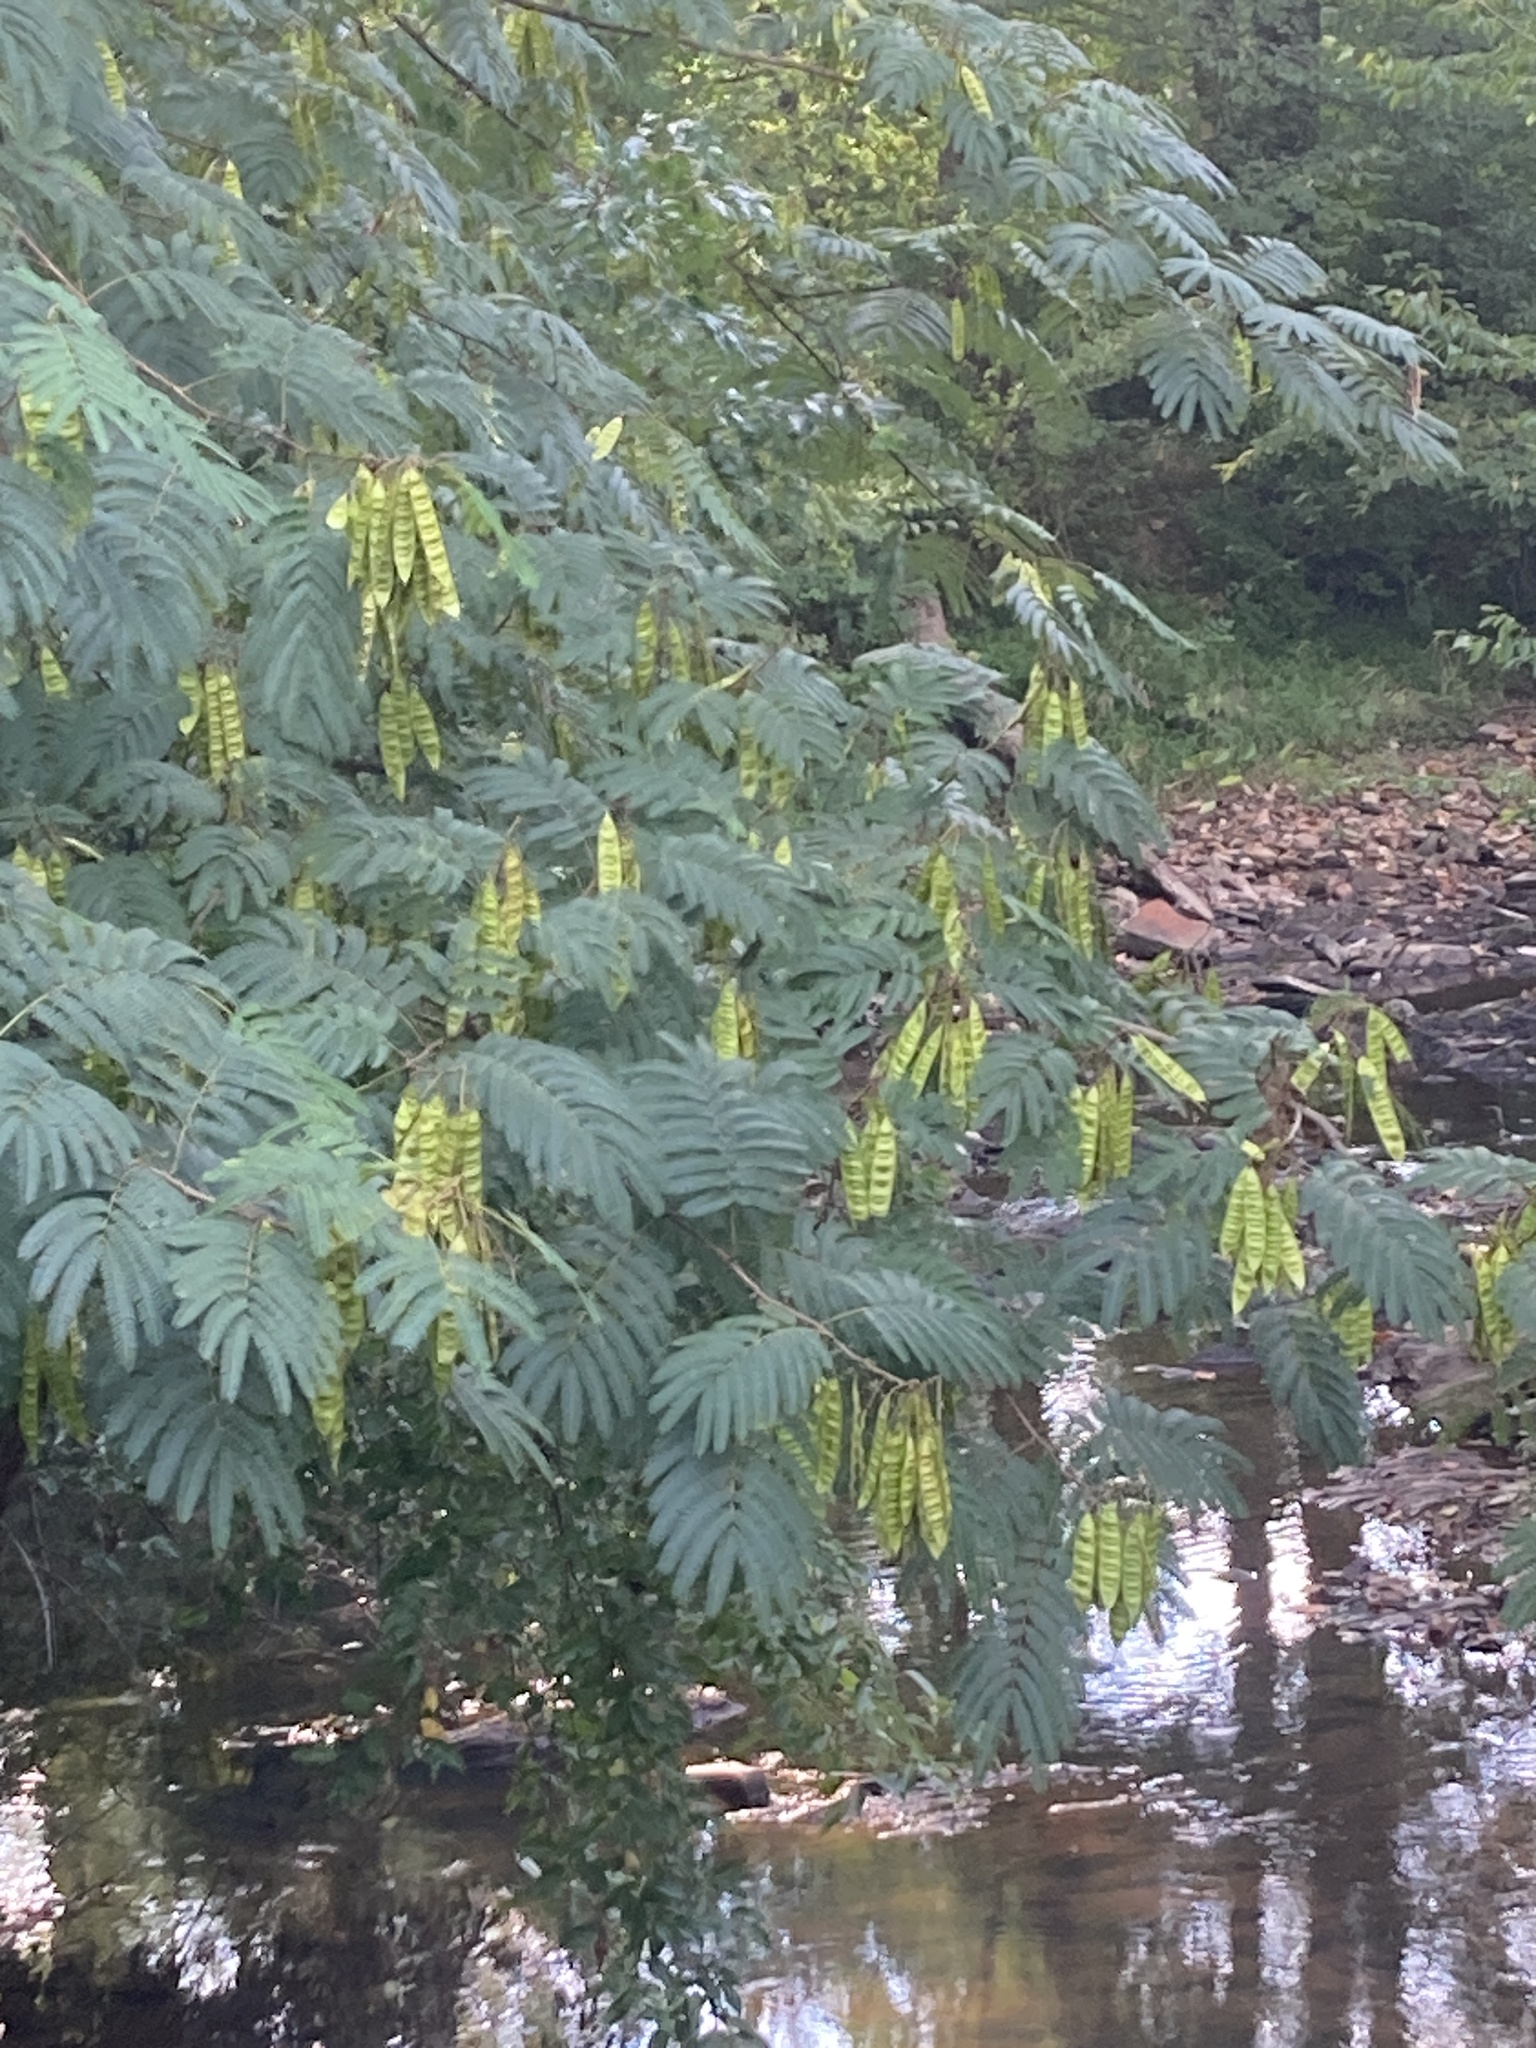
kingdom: Plantae
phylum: Tracheophyta
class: Magnoliopsida
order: Fabales
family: Fabaceae
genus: Albizia
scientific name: Albizia julibrissin
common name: Silktree
